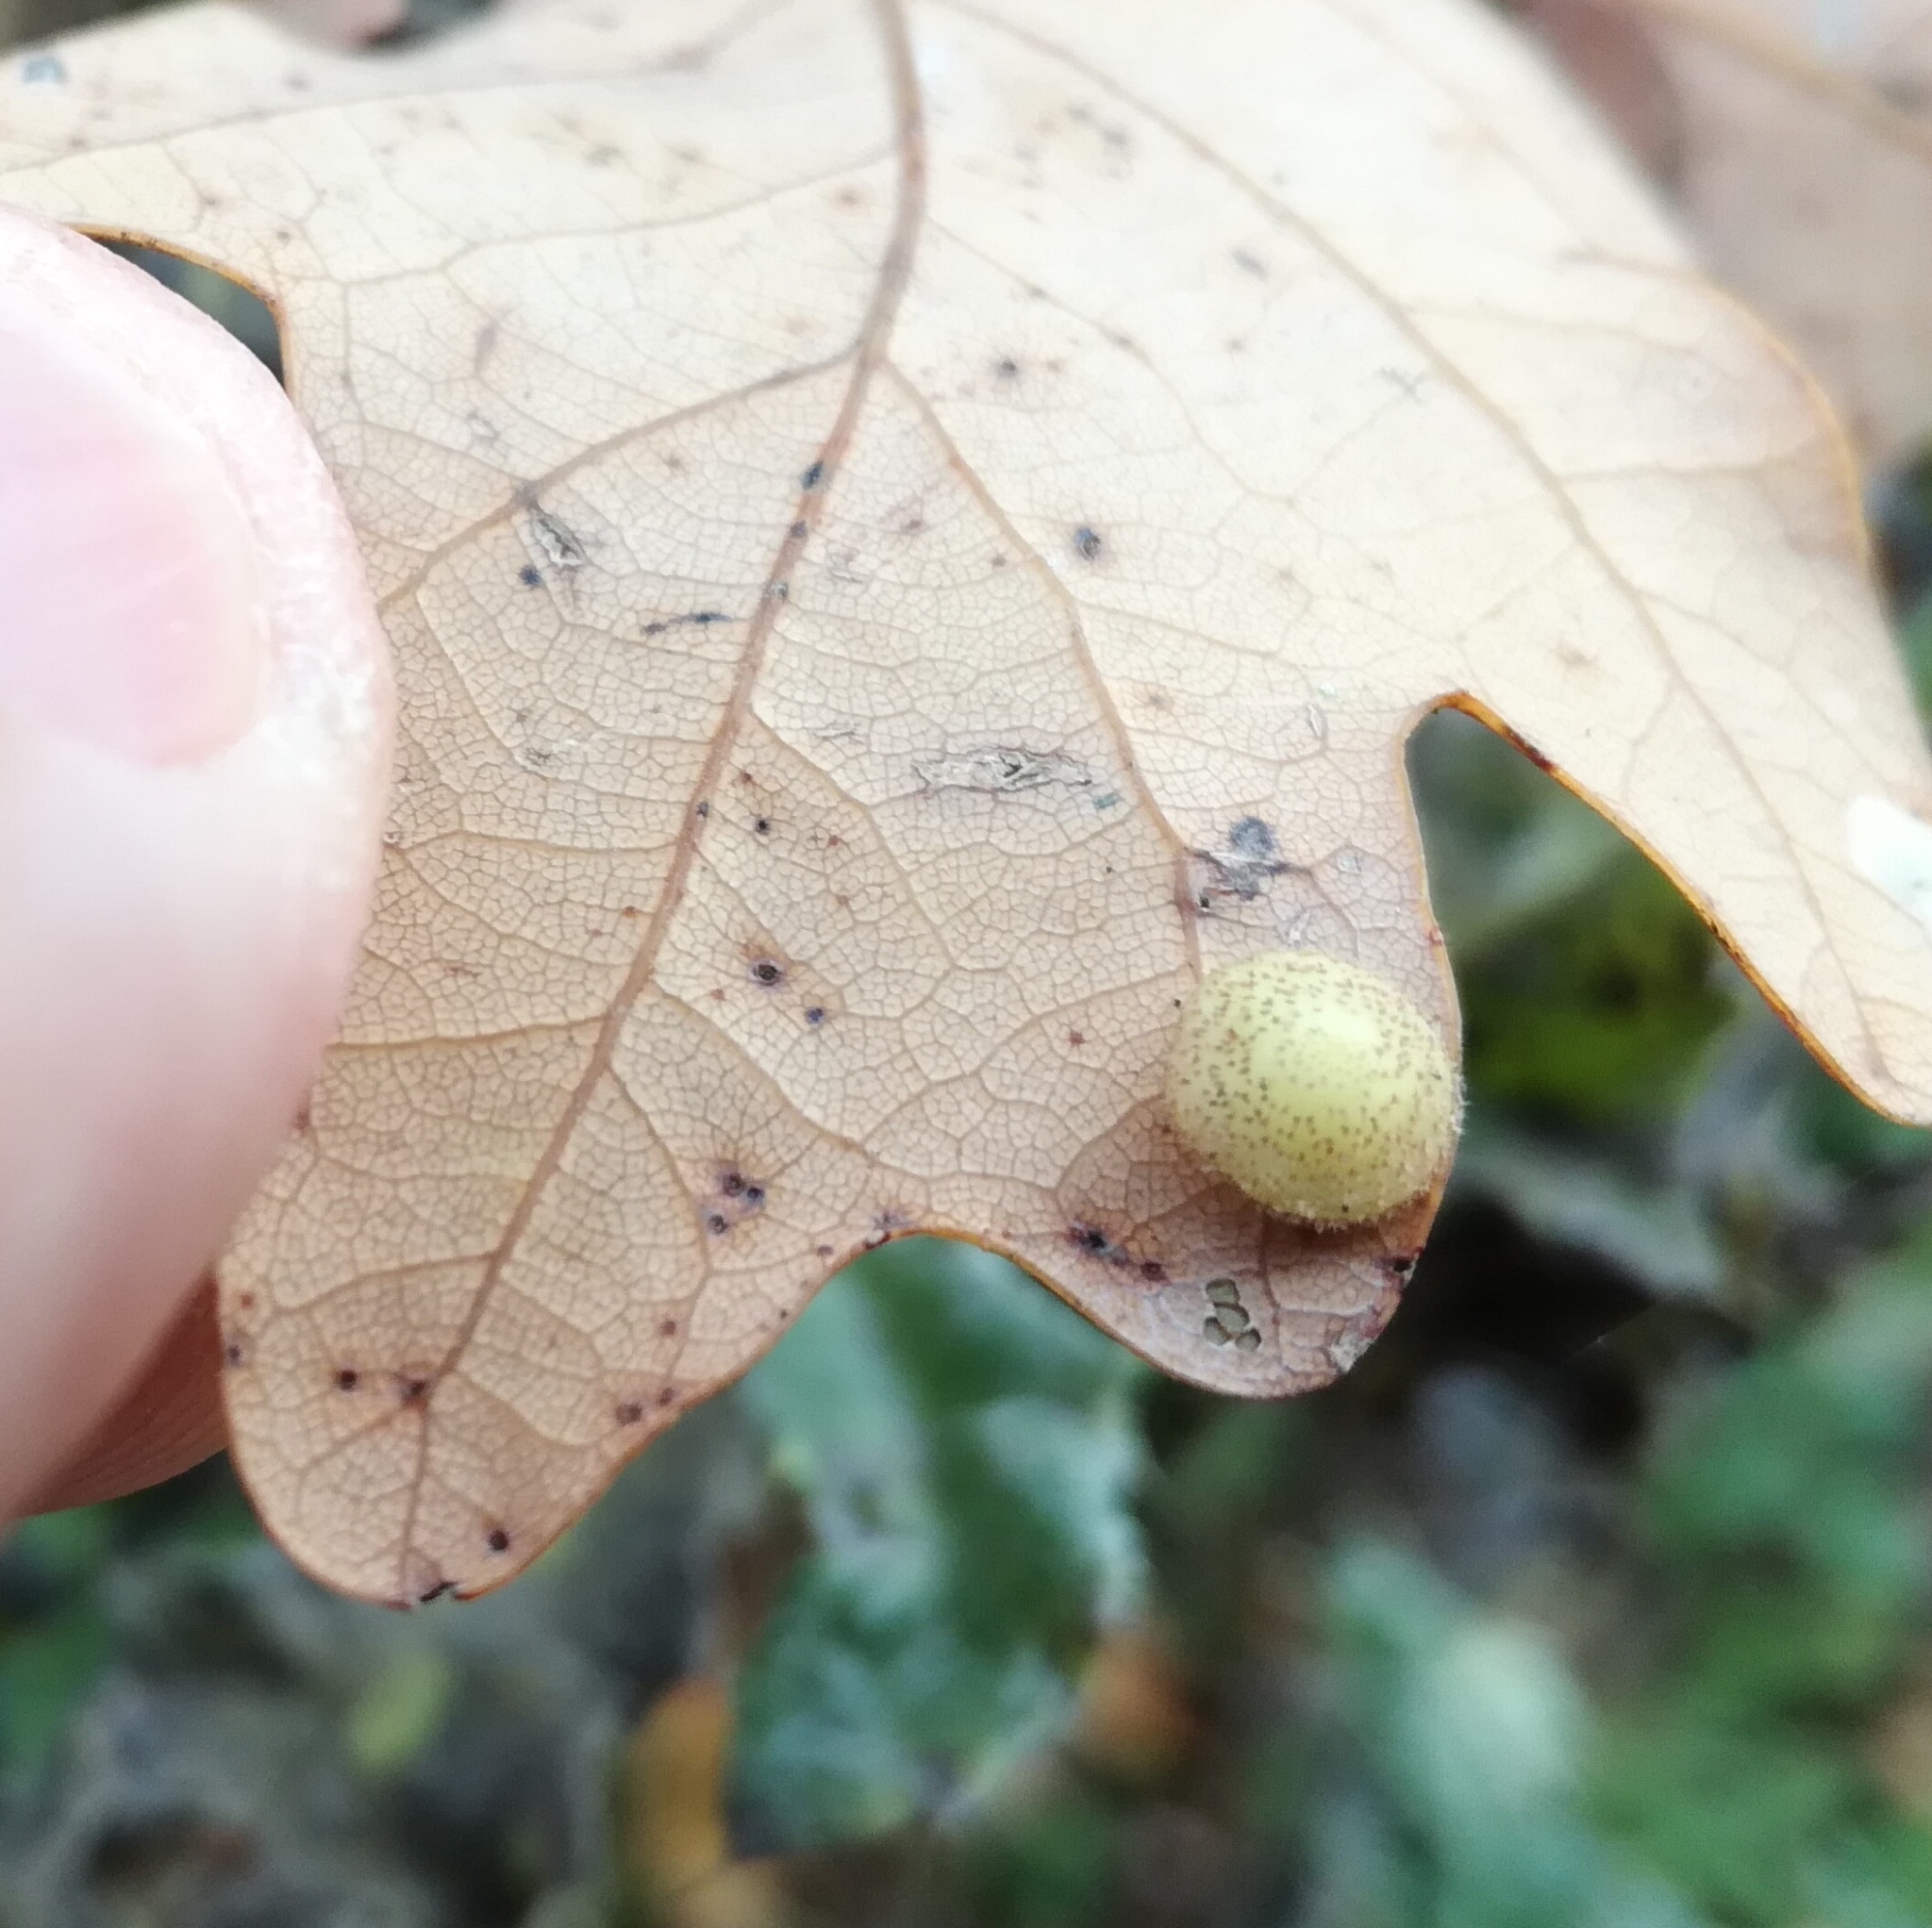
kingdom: Animalia
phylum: Arthropoda
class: Insecta
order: Hymenoptera
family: Cynipidae
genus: Neuroterus
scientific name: Neuroterus quercusbaccarum
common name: Common spangle gall
